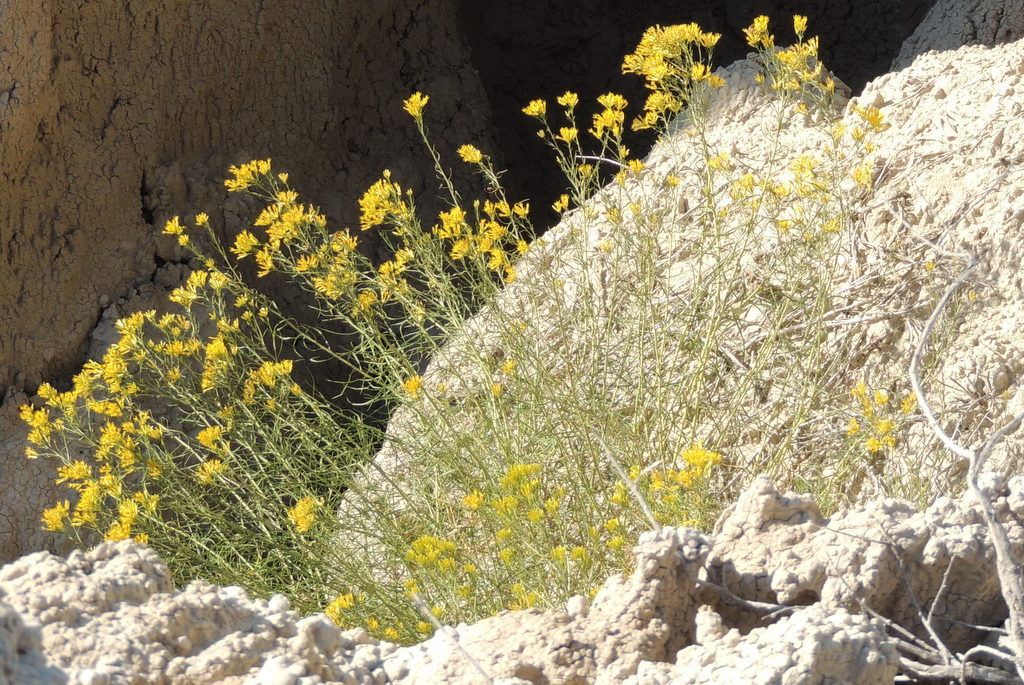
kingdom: Plantae
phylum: Tracheophyta
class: Magnoliopsida
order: Asterales
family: Asteraceae
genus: Ericameria
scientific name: Ericameria nauseosa
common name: Rubber rabbitbrush
